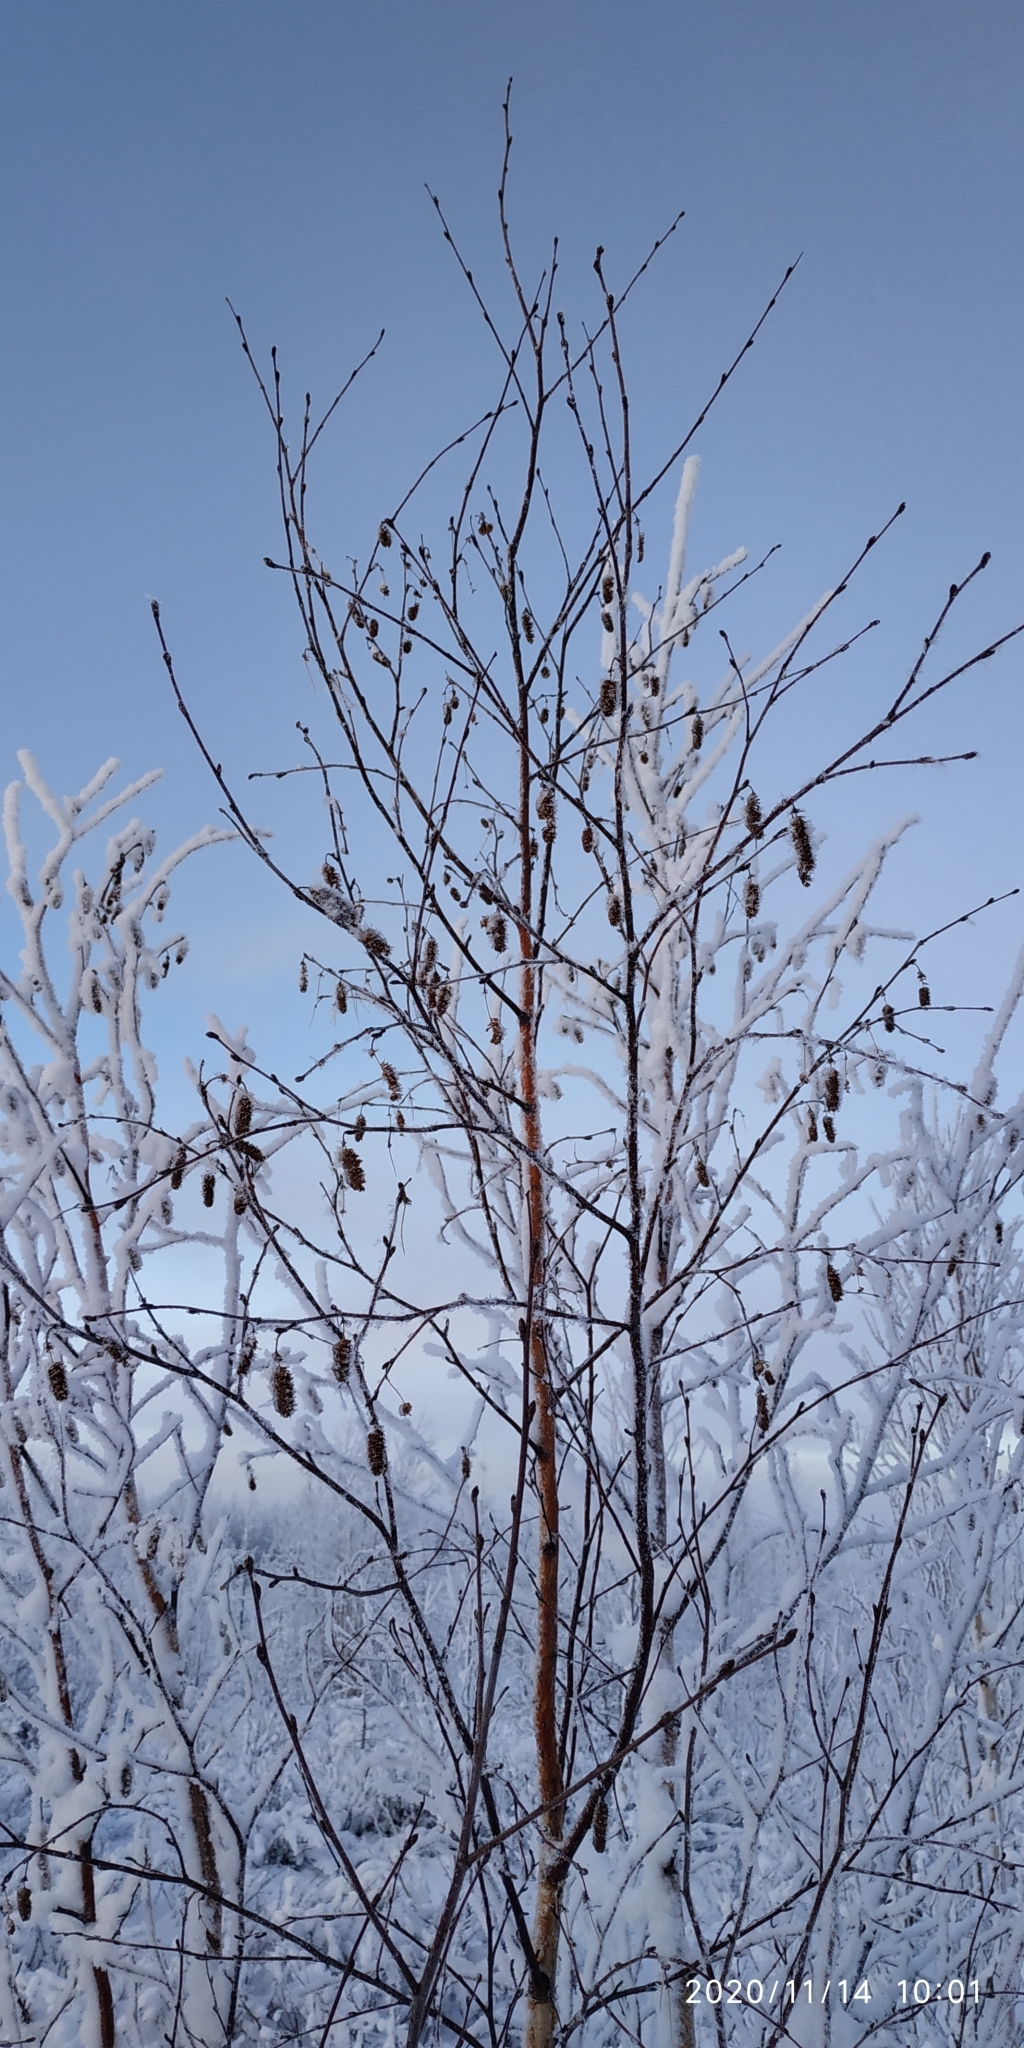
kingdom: Plantae
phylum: Tracheophyta
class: Magnoliopsida
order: Fagales
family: Betulaceae
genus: Betula
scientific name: Betula pubescens
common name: Downy birch
